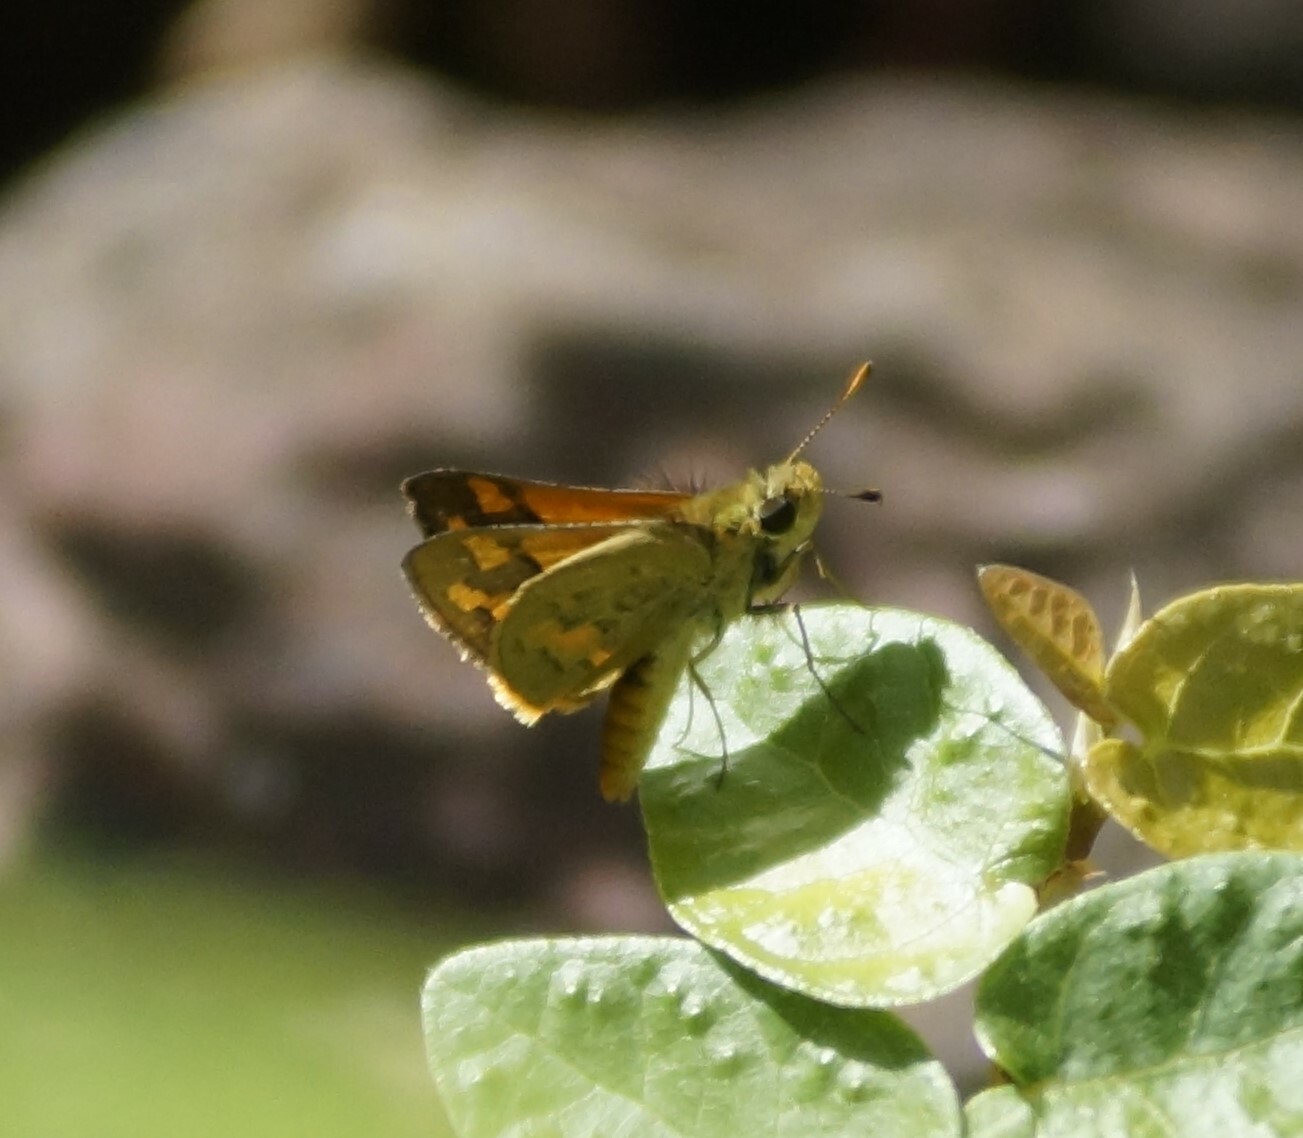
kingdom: Animalia
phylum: Arthropoda
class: Insecta
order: Lepidoptera
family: Hesperiidae
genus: Ocybadistes
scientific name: Ocybadistes walkeri
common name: Yellow-banded dart
